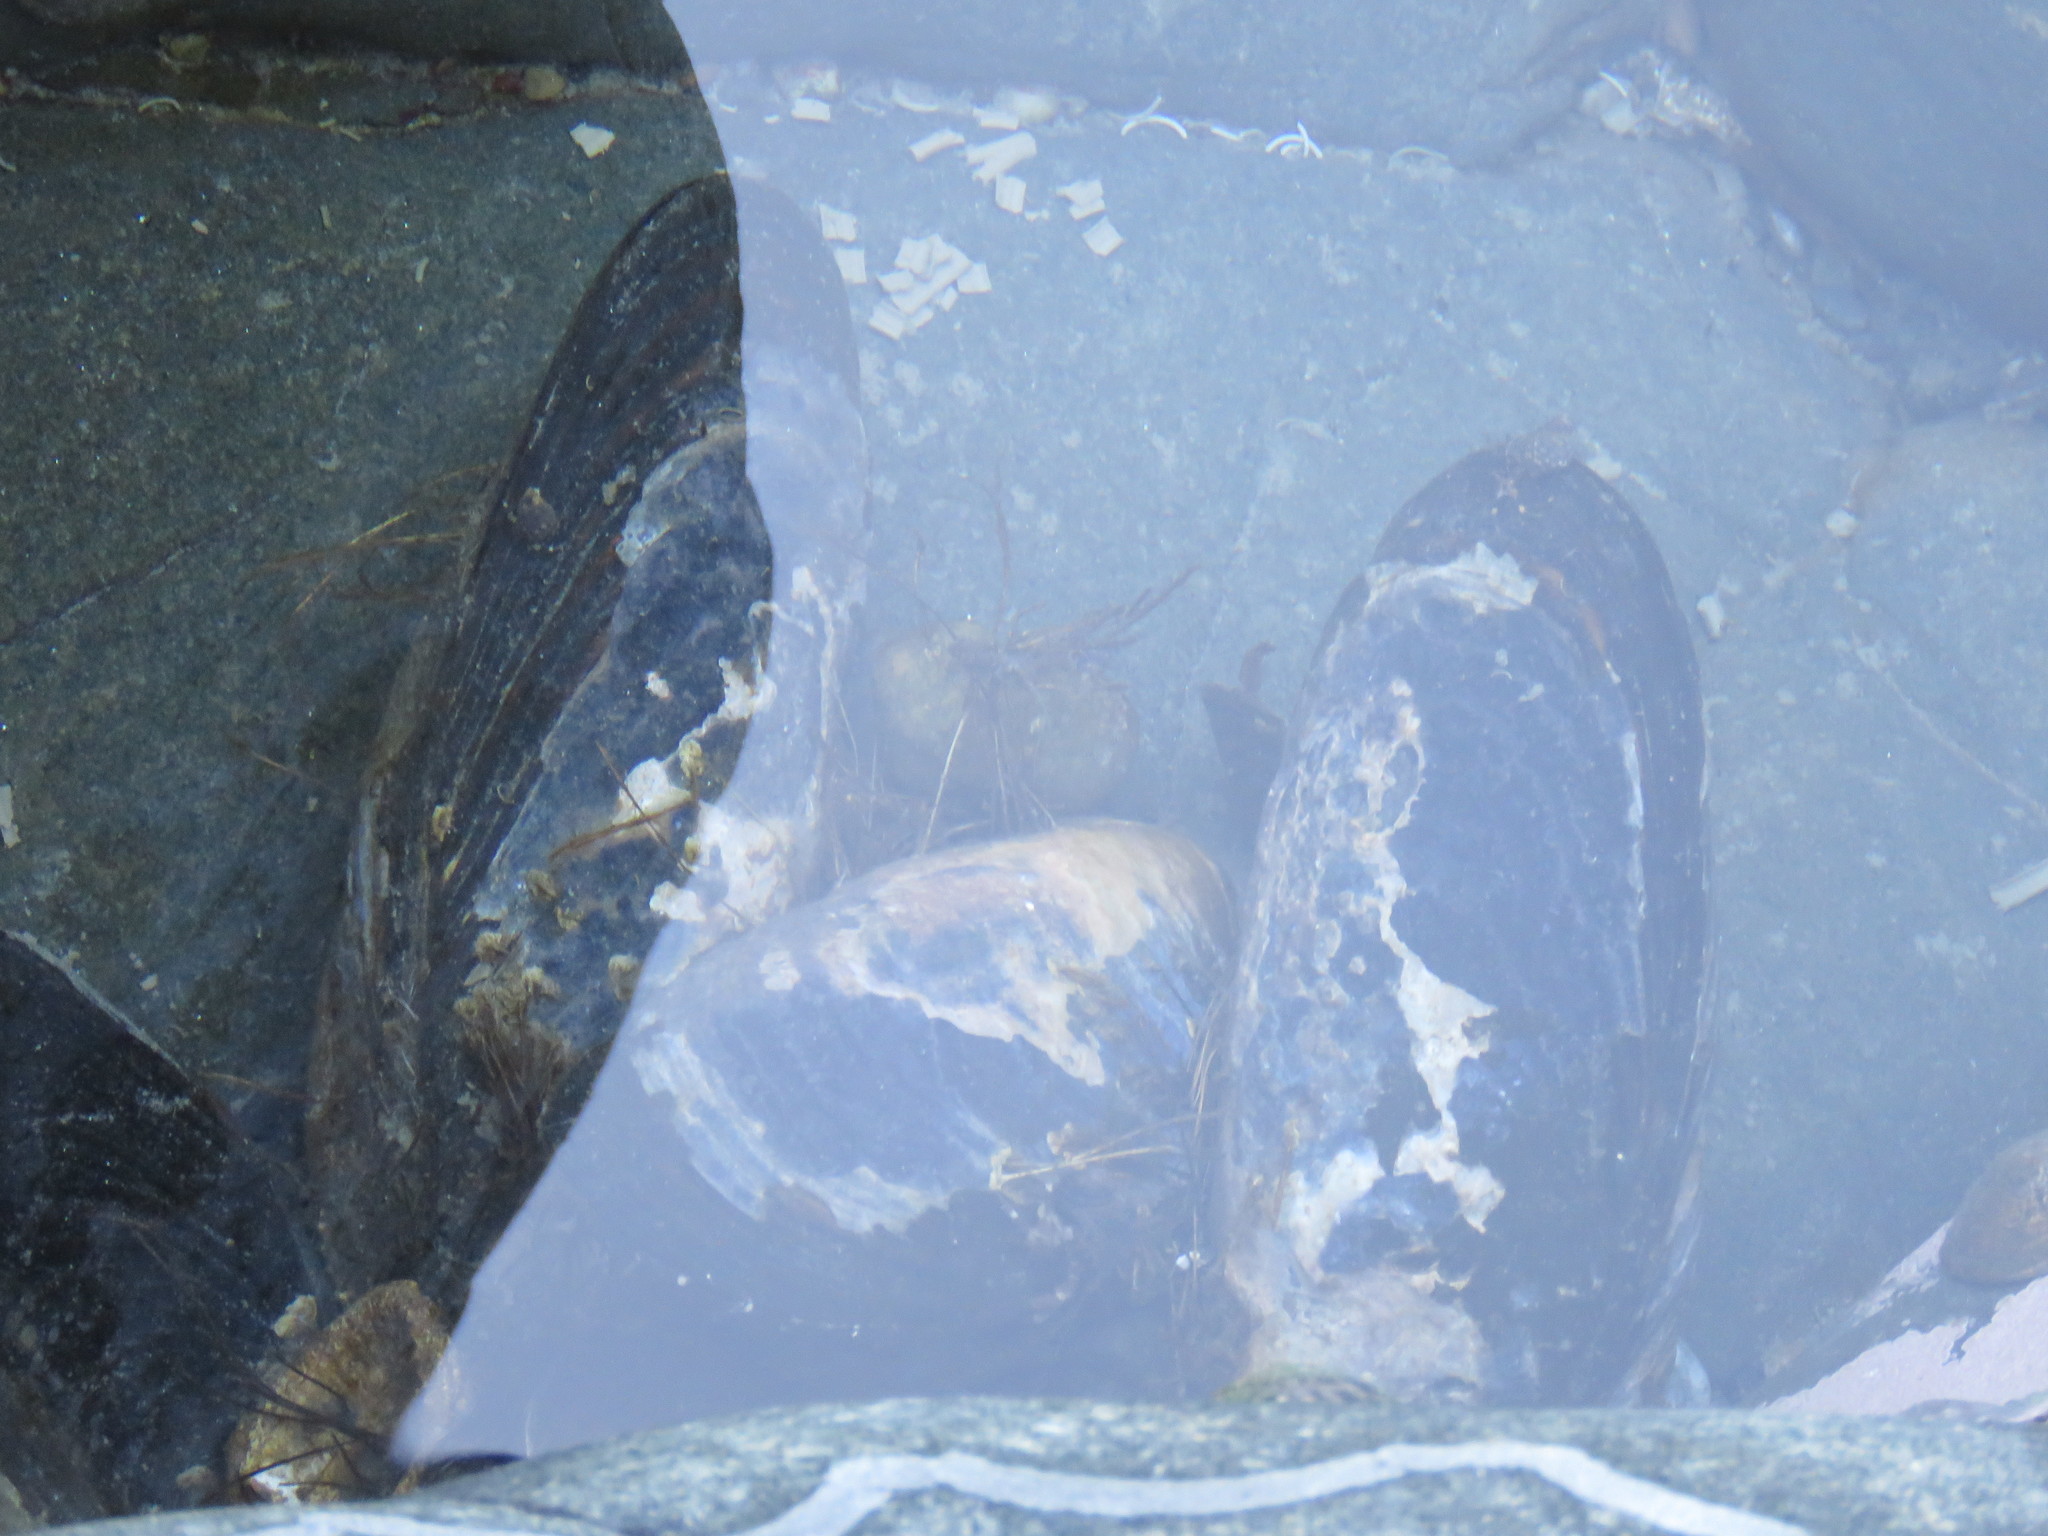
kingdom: Animalia
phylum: Mollusca
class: Bivalvia
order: Mytilida
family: Mytilidae
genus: Mytilus
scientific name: Mytilus californianus
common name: California mussel
